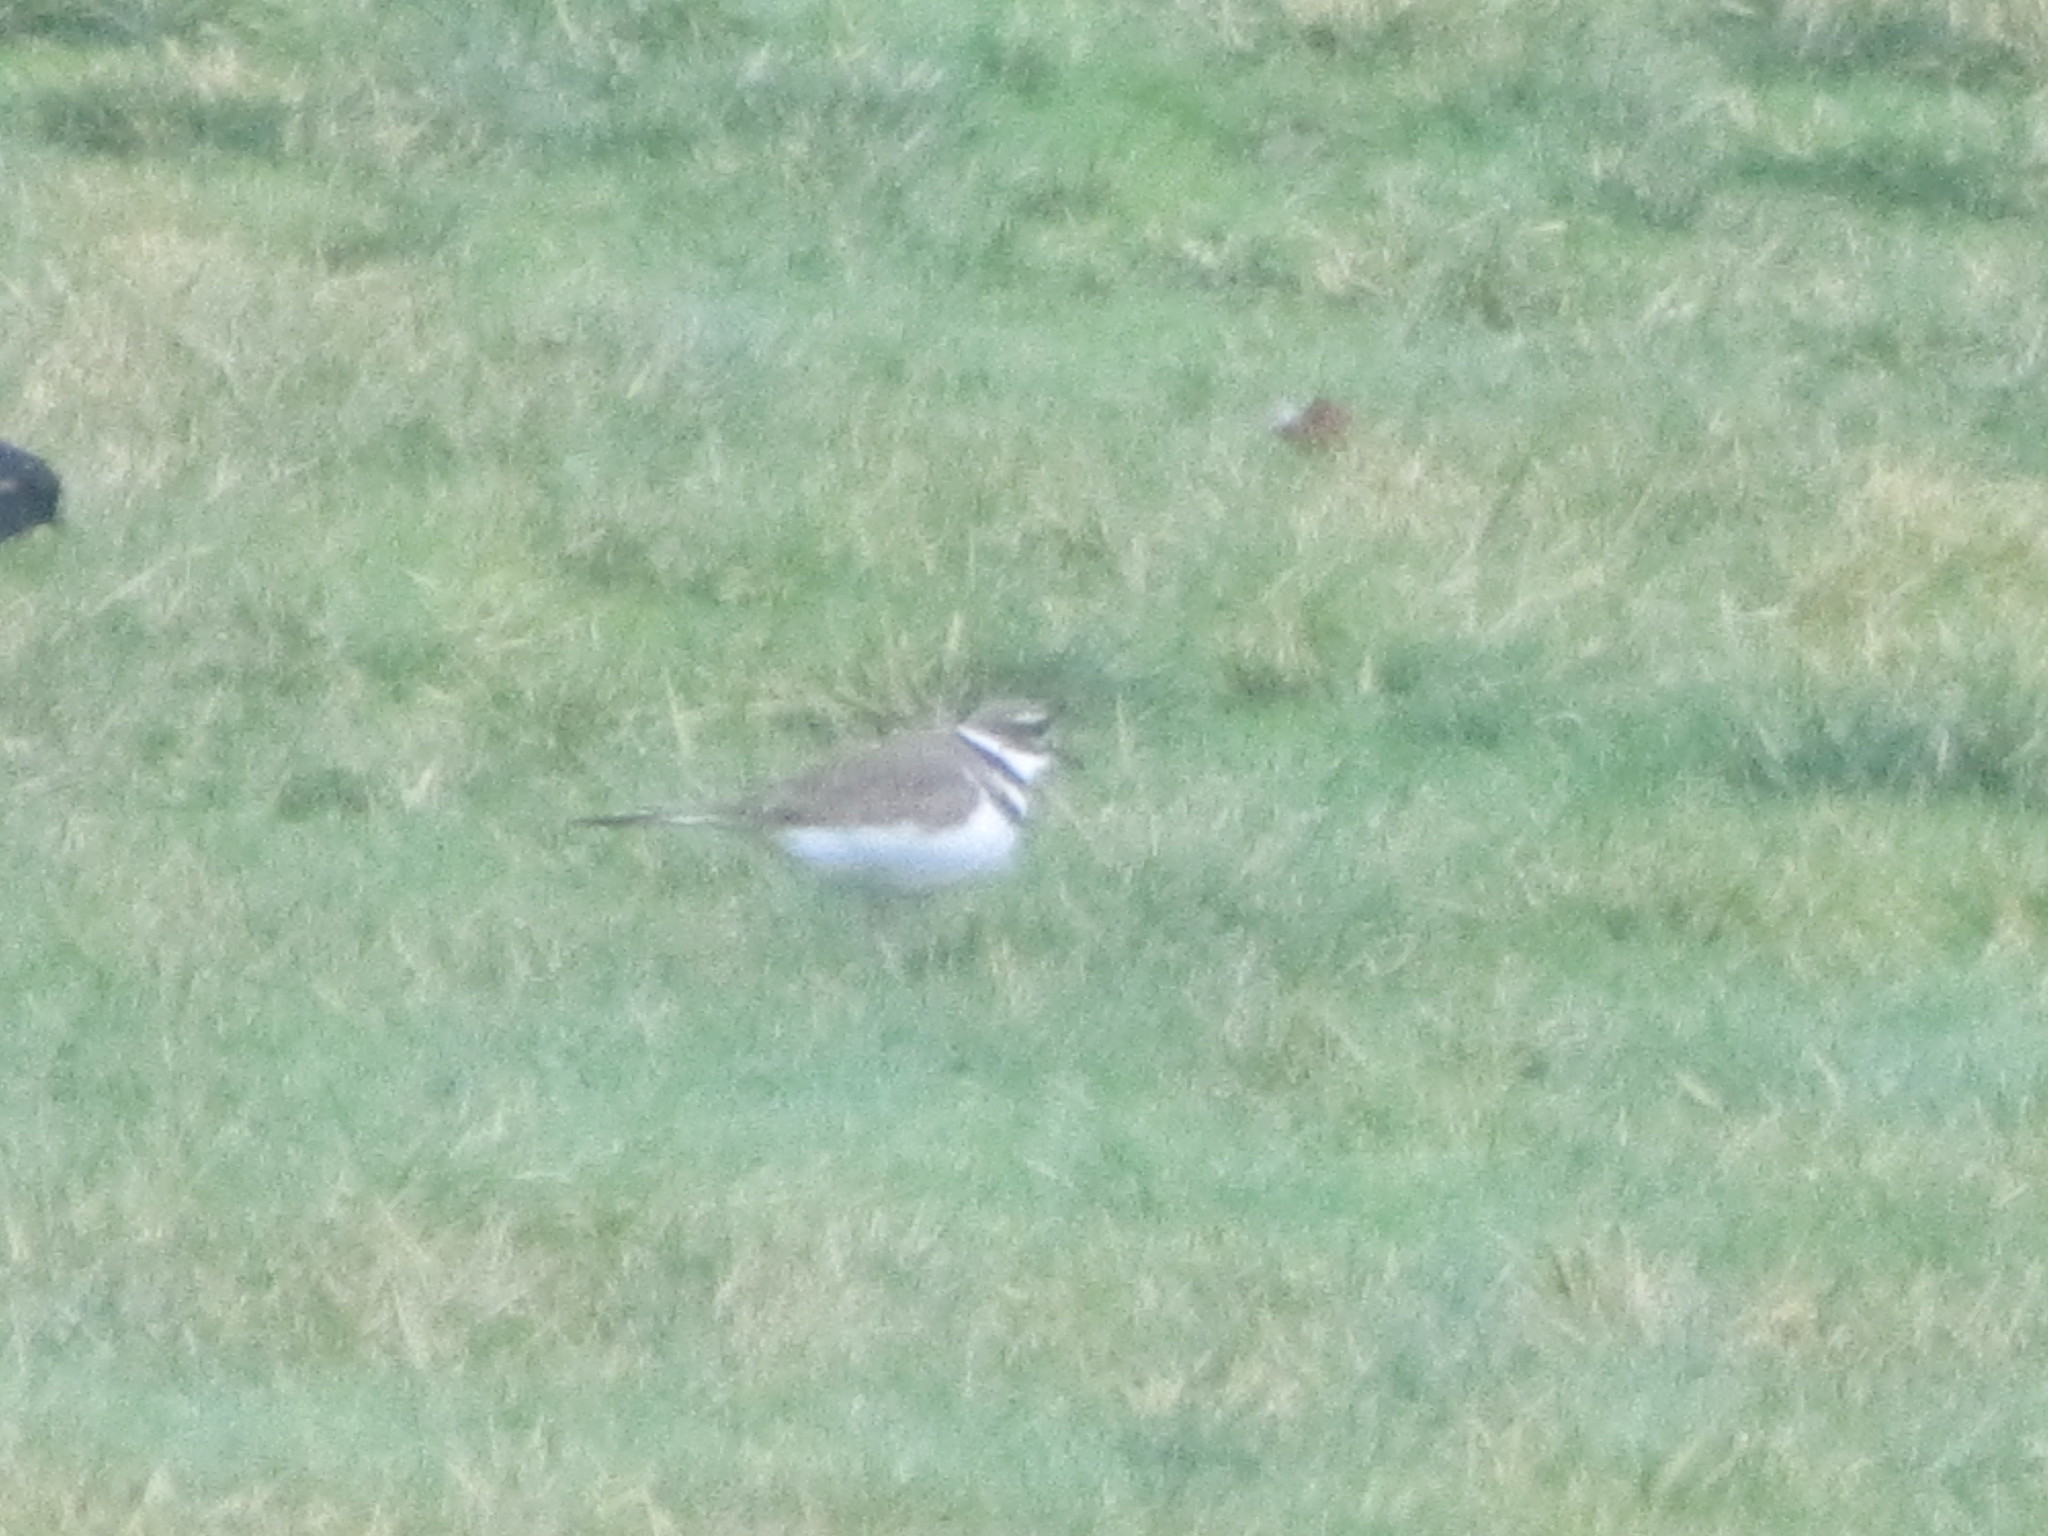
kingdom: Animalia
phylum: Chordata
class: Aves
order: Charadriiformes
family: Charadriidae
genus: Charadrius
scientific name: Charadrius vociferus
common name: Killdeer
